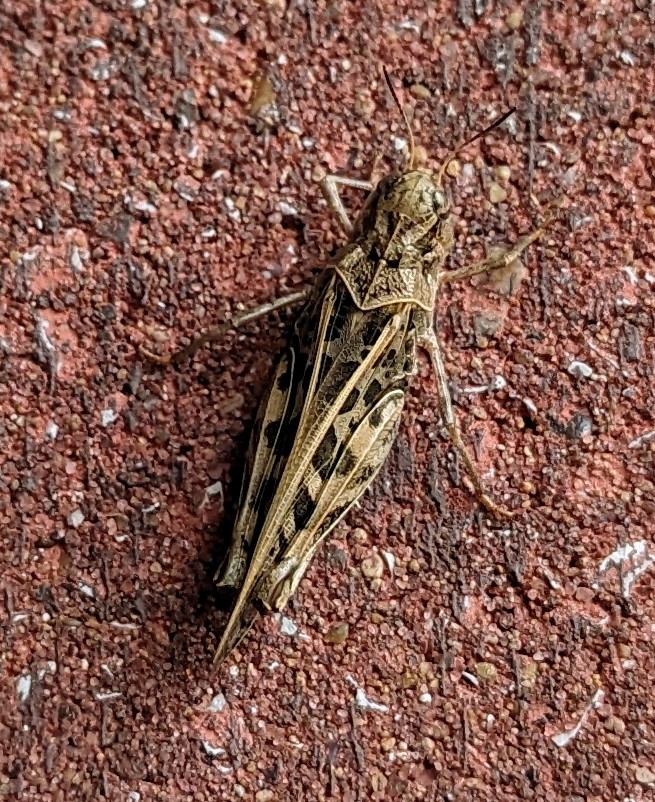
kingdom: Animalia
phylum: Arthropoda
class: Insecta
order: Orthoptera
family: Acrididae
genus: Hippiscus
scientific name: Hippiscus ocelote
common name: Wrinkled grasshopper
